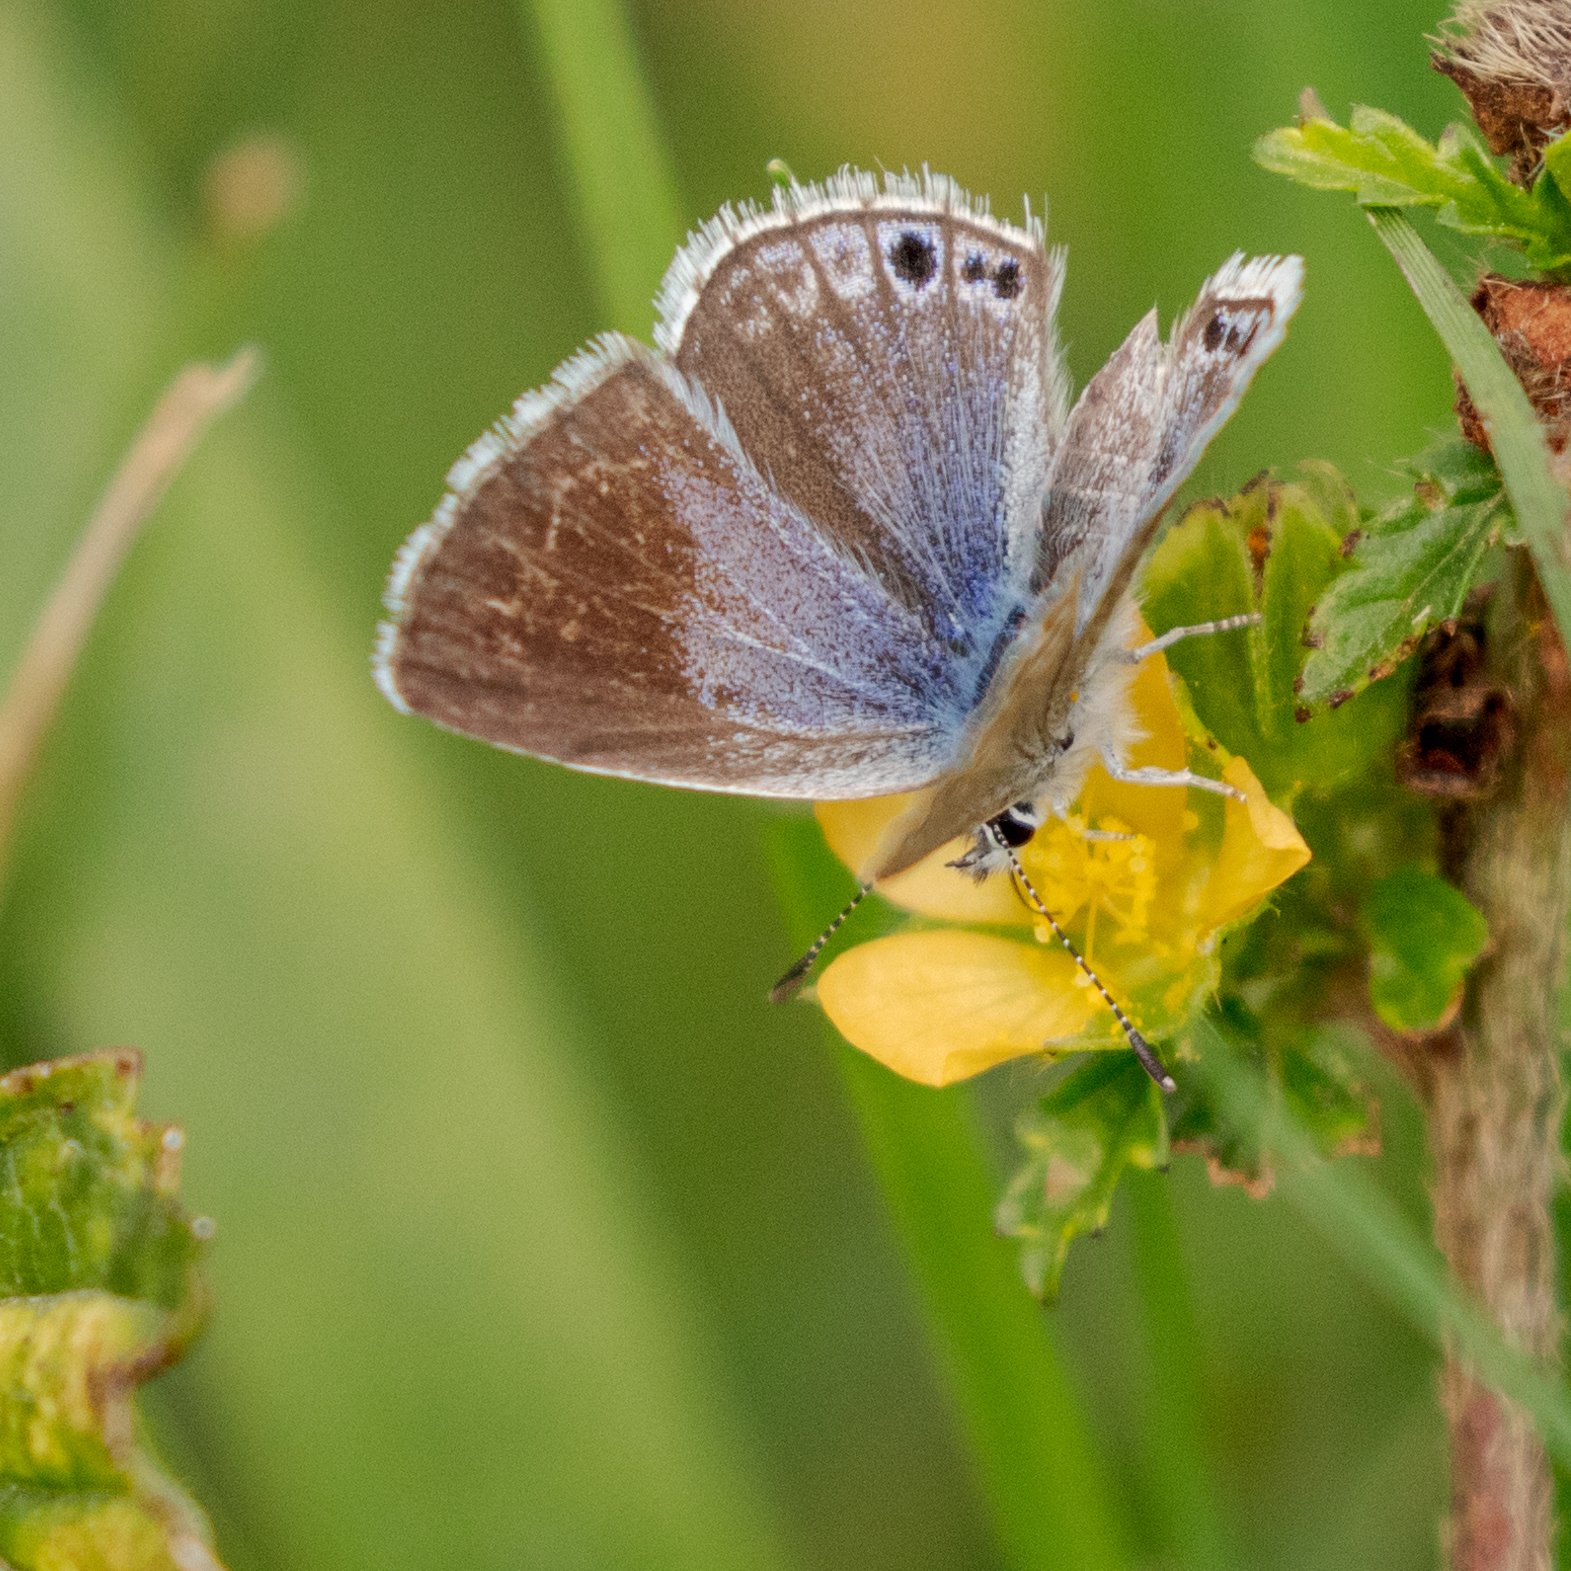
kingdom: Animalia
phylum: Arthropoda
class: Insecta
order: Lepidoptera
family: Lycaenidae
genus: Echinargus
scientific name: Echinargus isola
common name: Reakirt's blue
